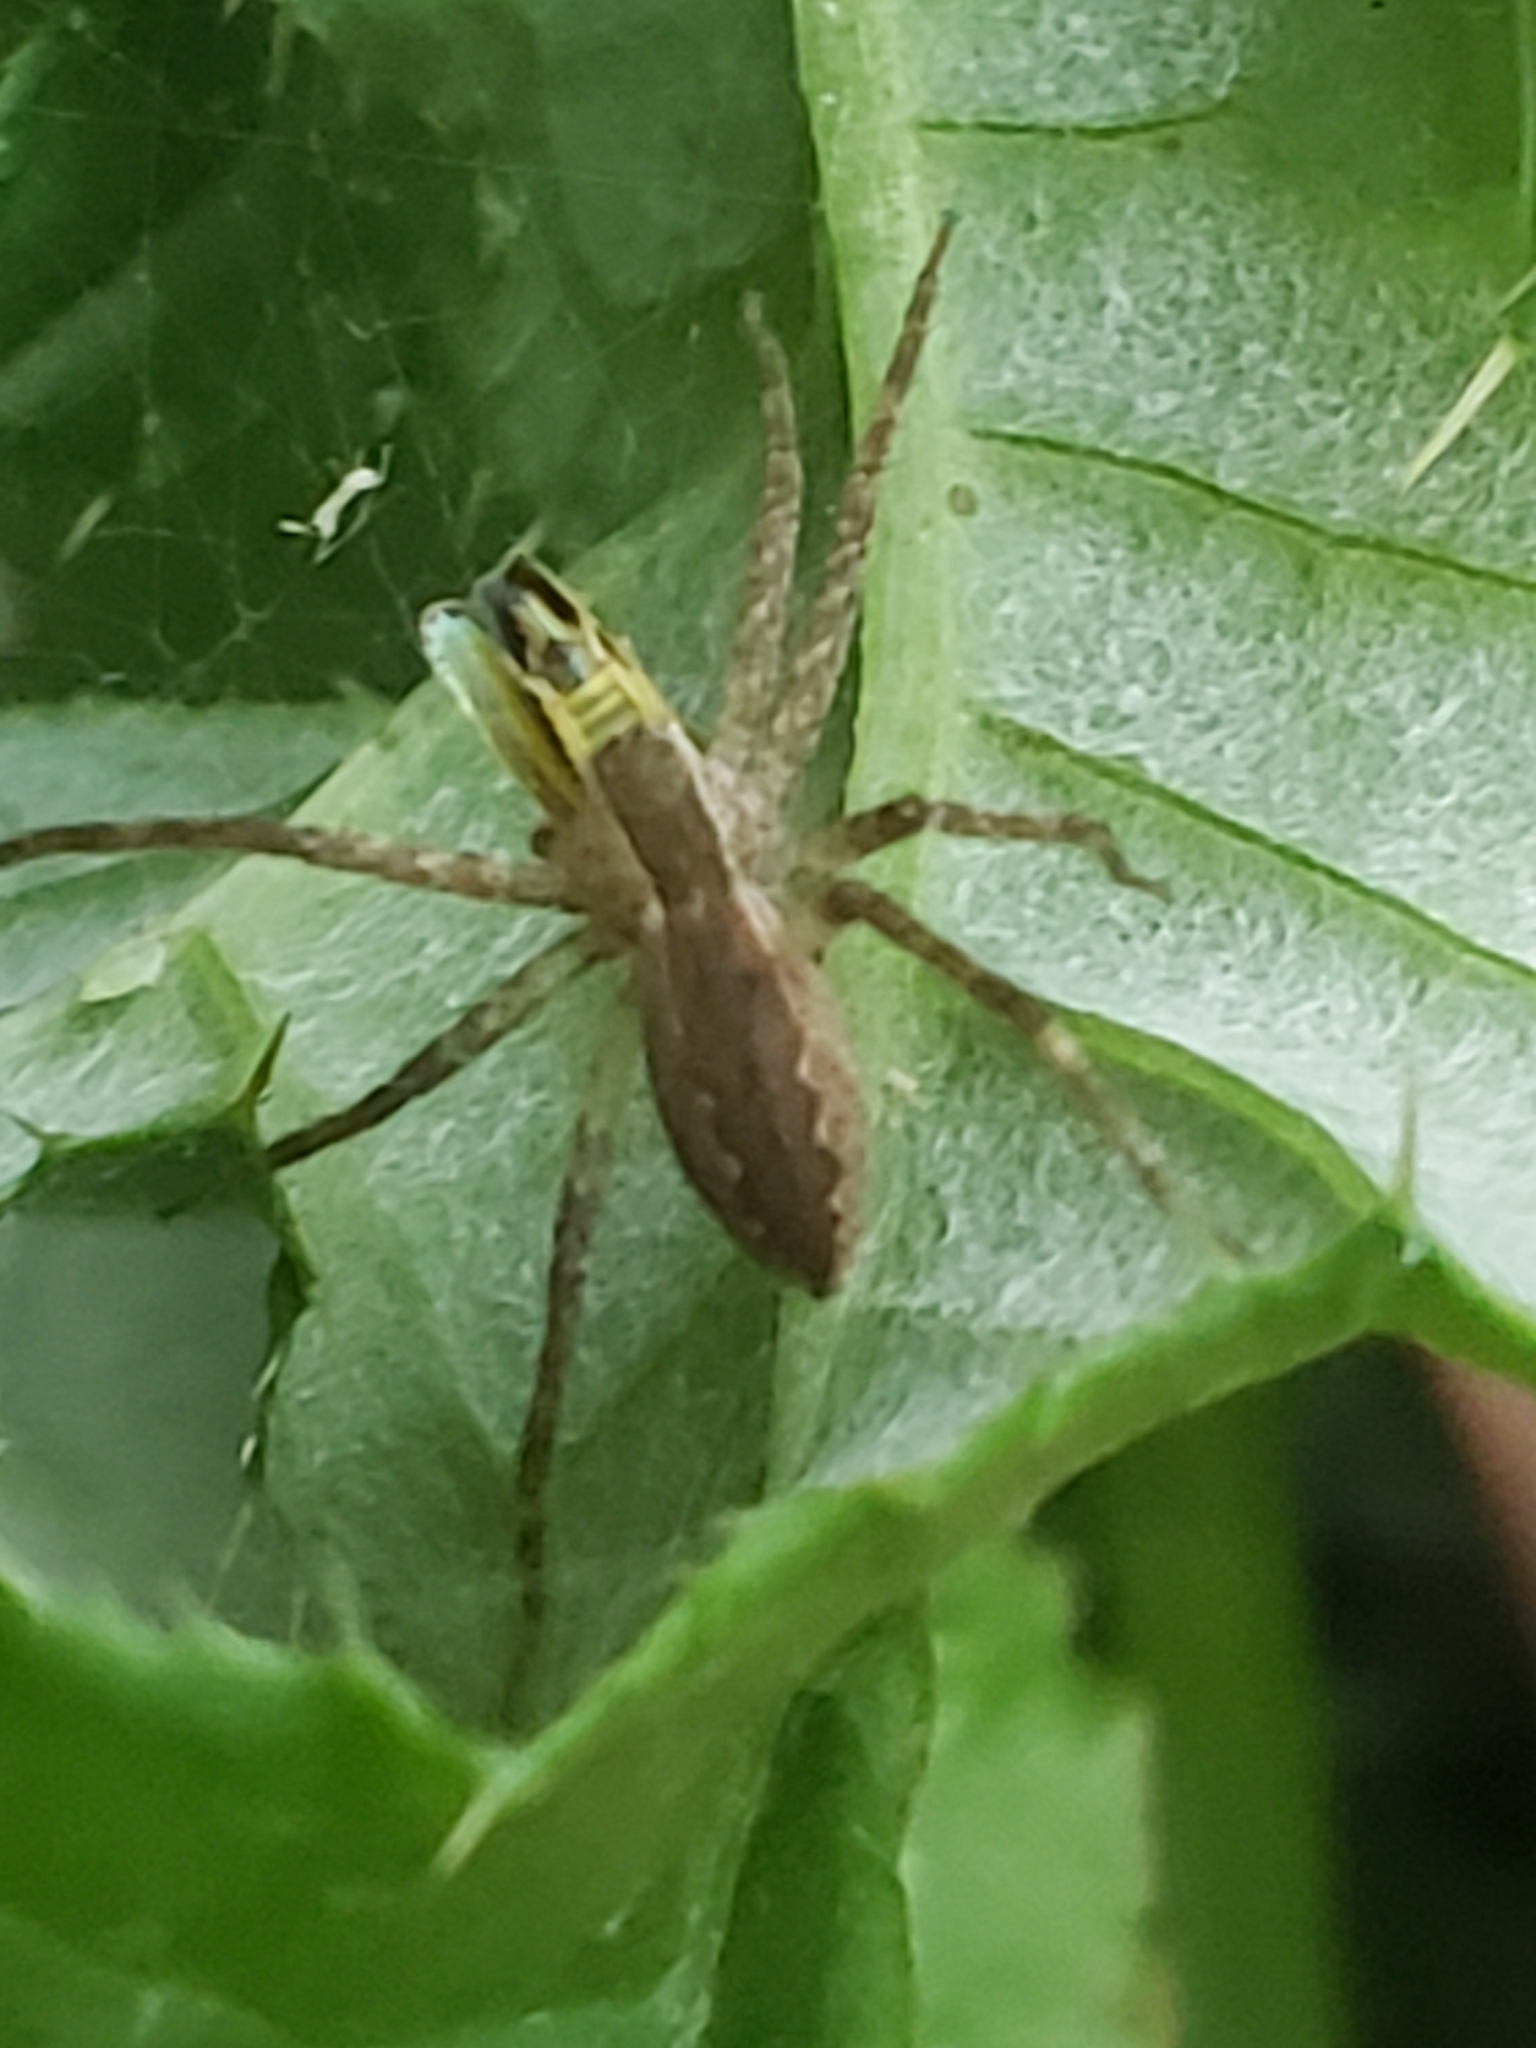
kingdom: Animalia
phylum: Arthropoda
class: Arachnida
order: Araneae
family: Pisauridae
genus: Pisaurina
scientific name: Pisaurina mira
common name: American nursery web spider
